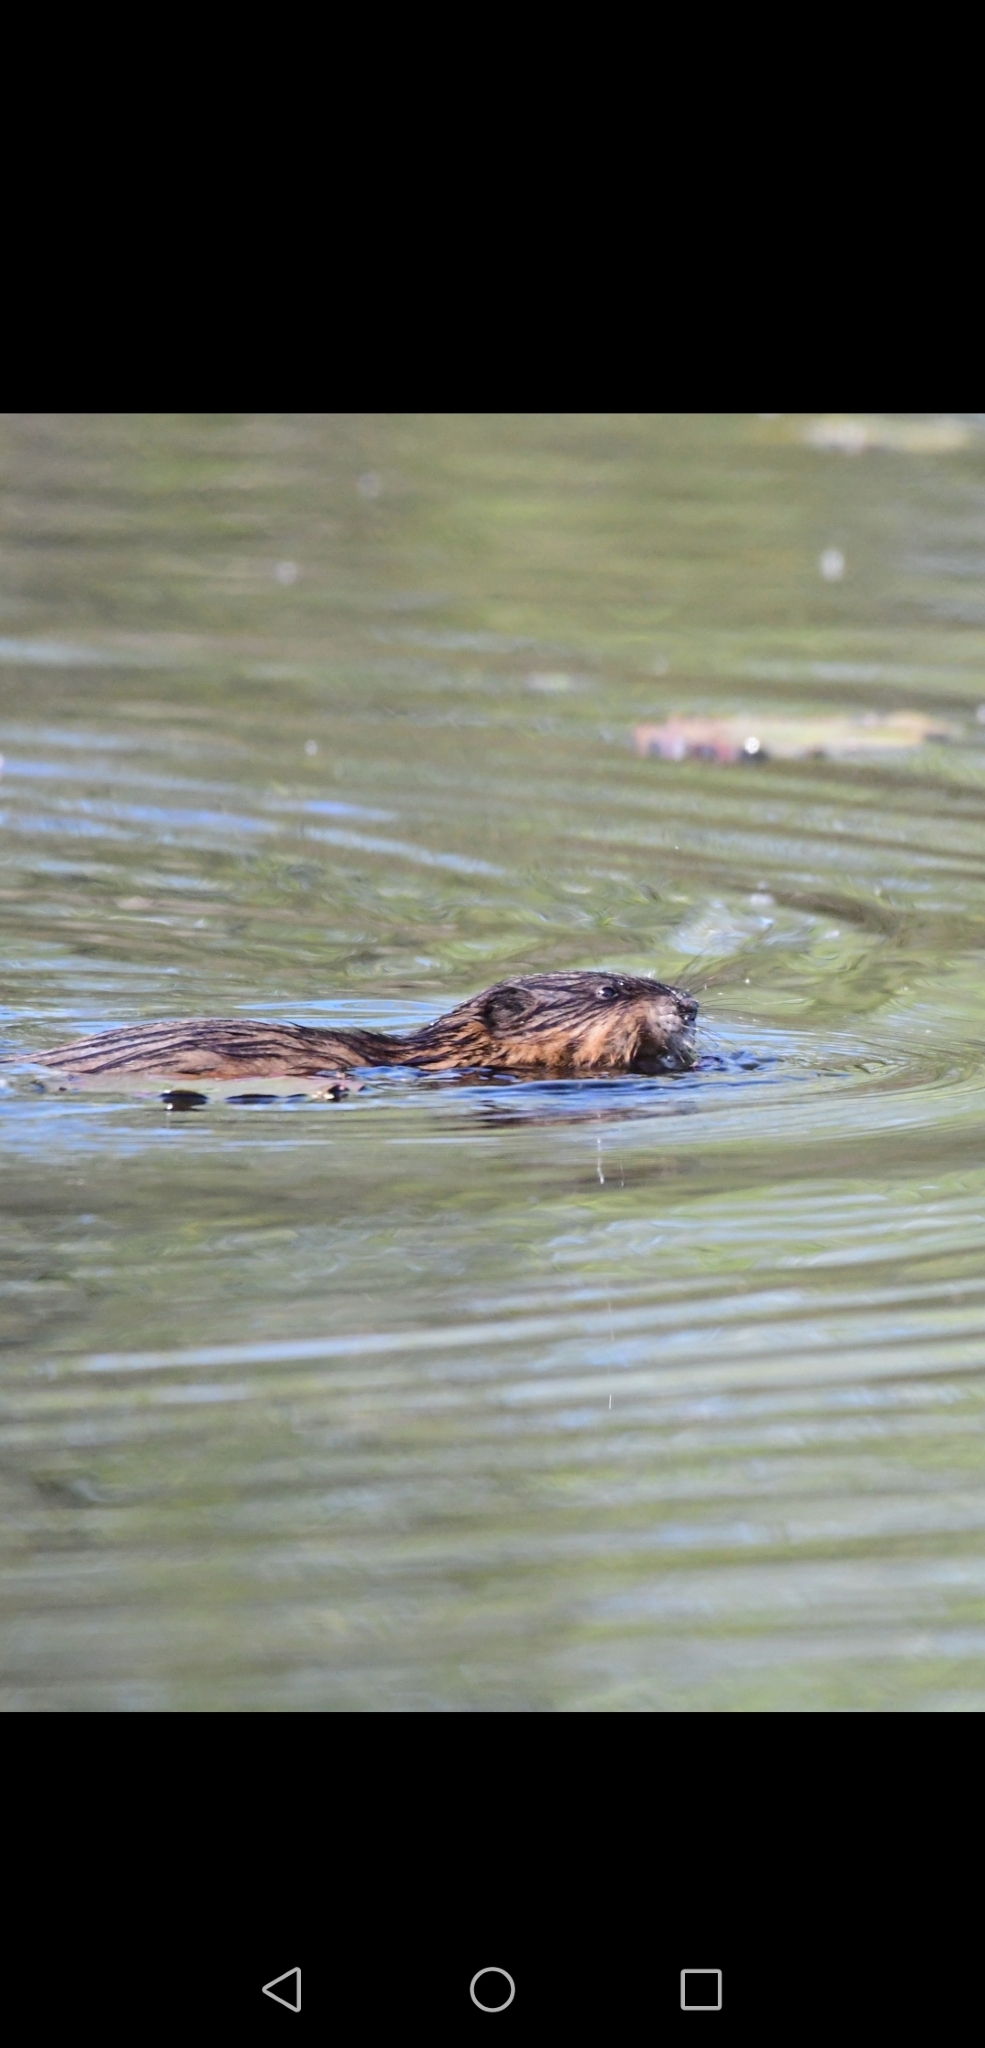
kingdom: Animalia
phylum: Chordata
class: Mammalia
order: Rodentia
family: Cricetidae
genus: Ondatra
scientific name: Ondatra zibethicus
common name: Muskrat
